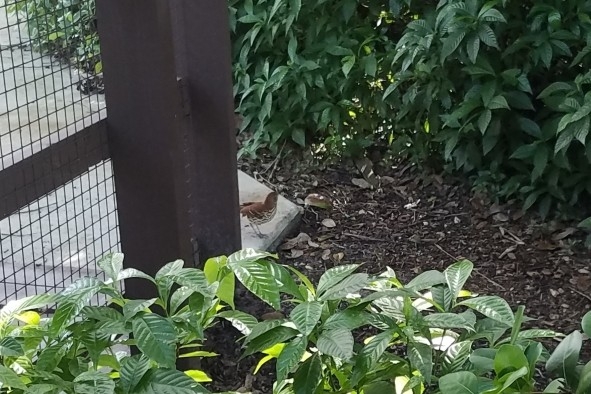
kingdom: Animalia
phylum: Chordata
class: Aves
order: Passeriformes
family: Mimidae
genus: Toxostoma
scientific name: Toxostoma rufum
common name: Brown thrasher
